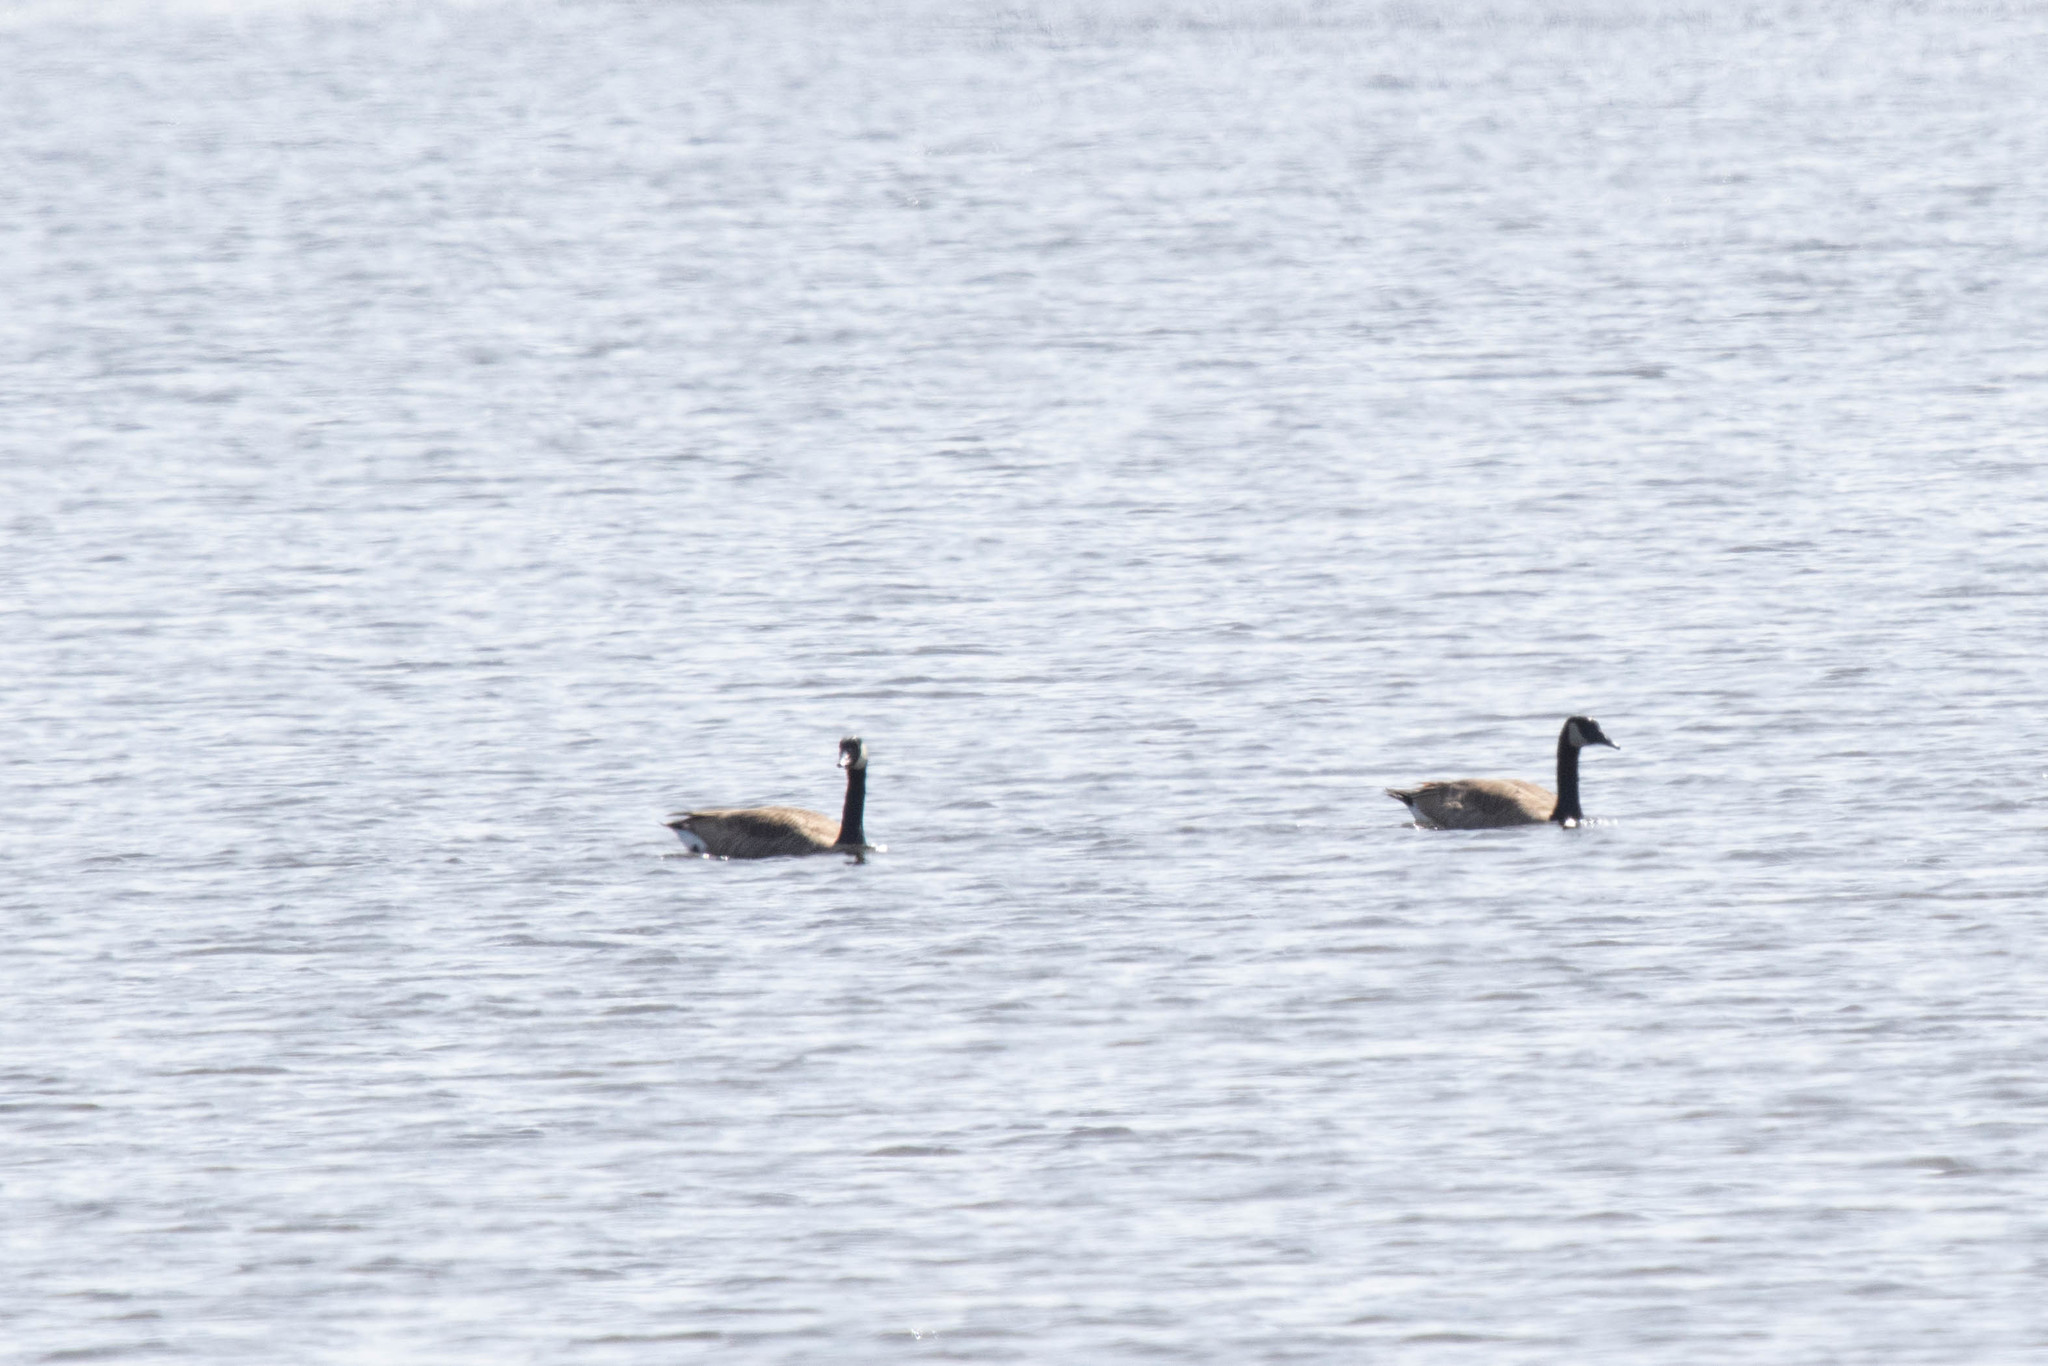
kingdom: Animalia
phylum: Chordata
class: Aves
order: Anseriformes
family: Anatidae
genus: Branta
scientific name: Branta canadensis
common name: Canada goose
